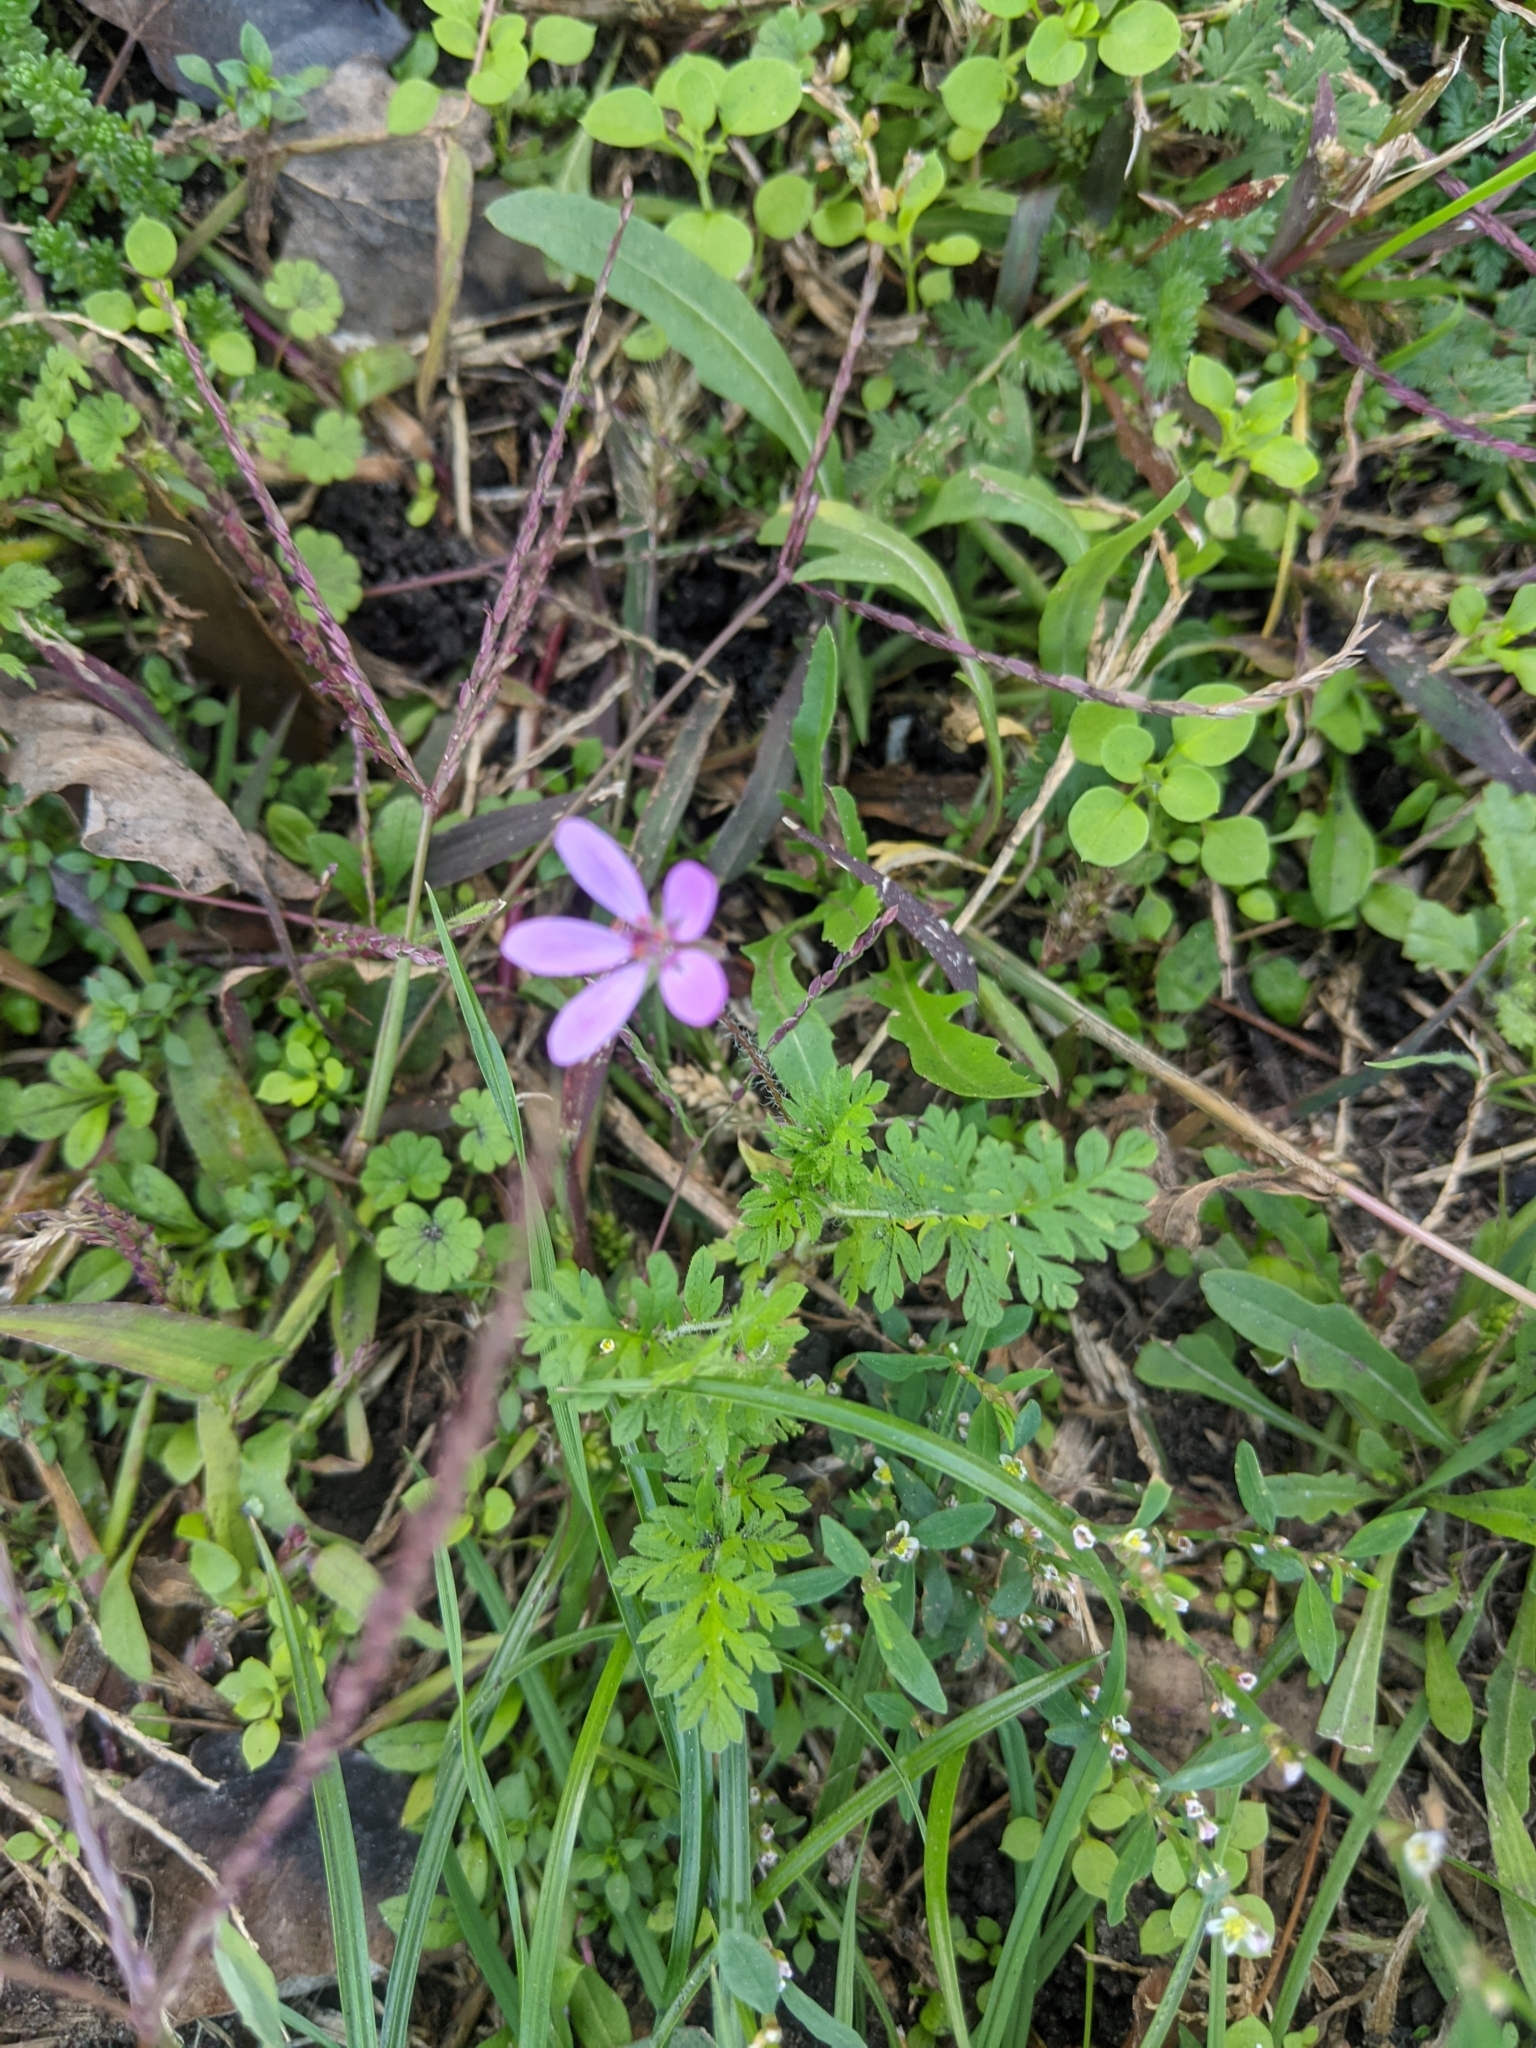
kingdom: Plantae
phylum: Tracheophyta
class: Magnoliopsida
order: Geraniales
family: Geraniaceae
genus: Erodium
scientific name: Erodium cicutarium
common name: Common stork's-bill
